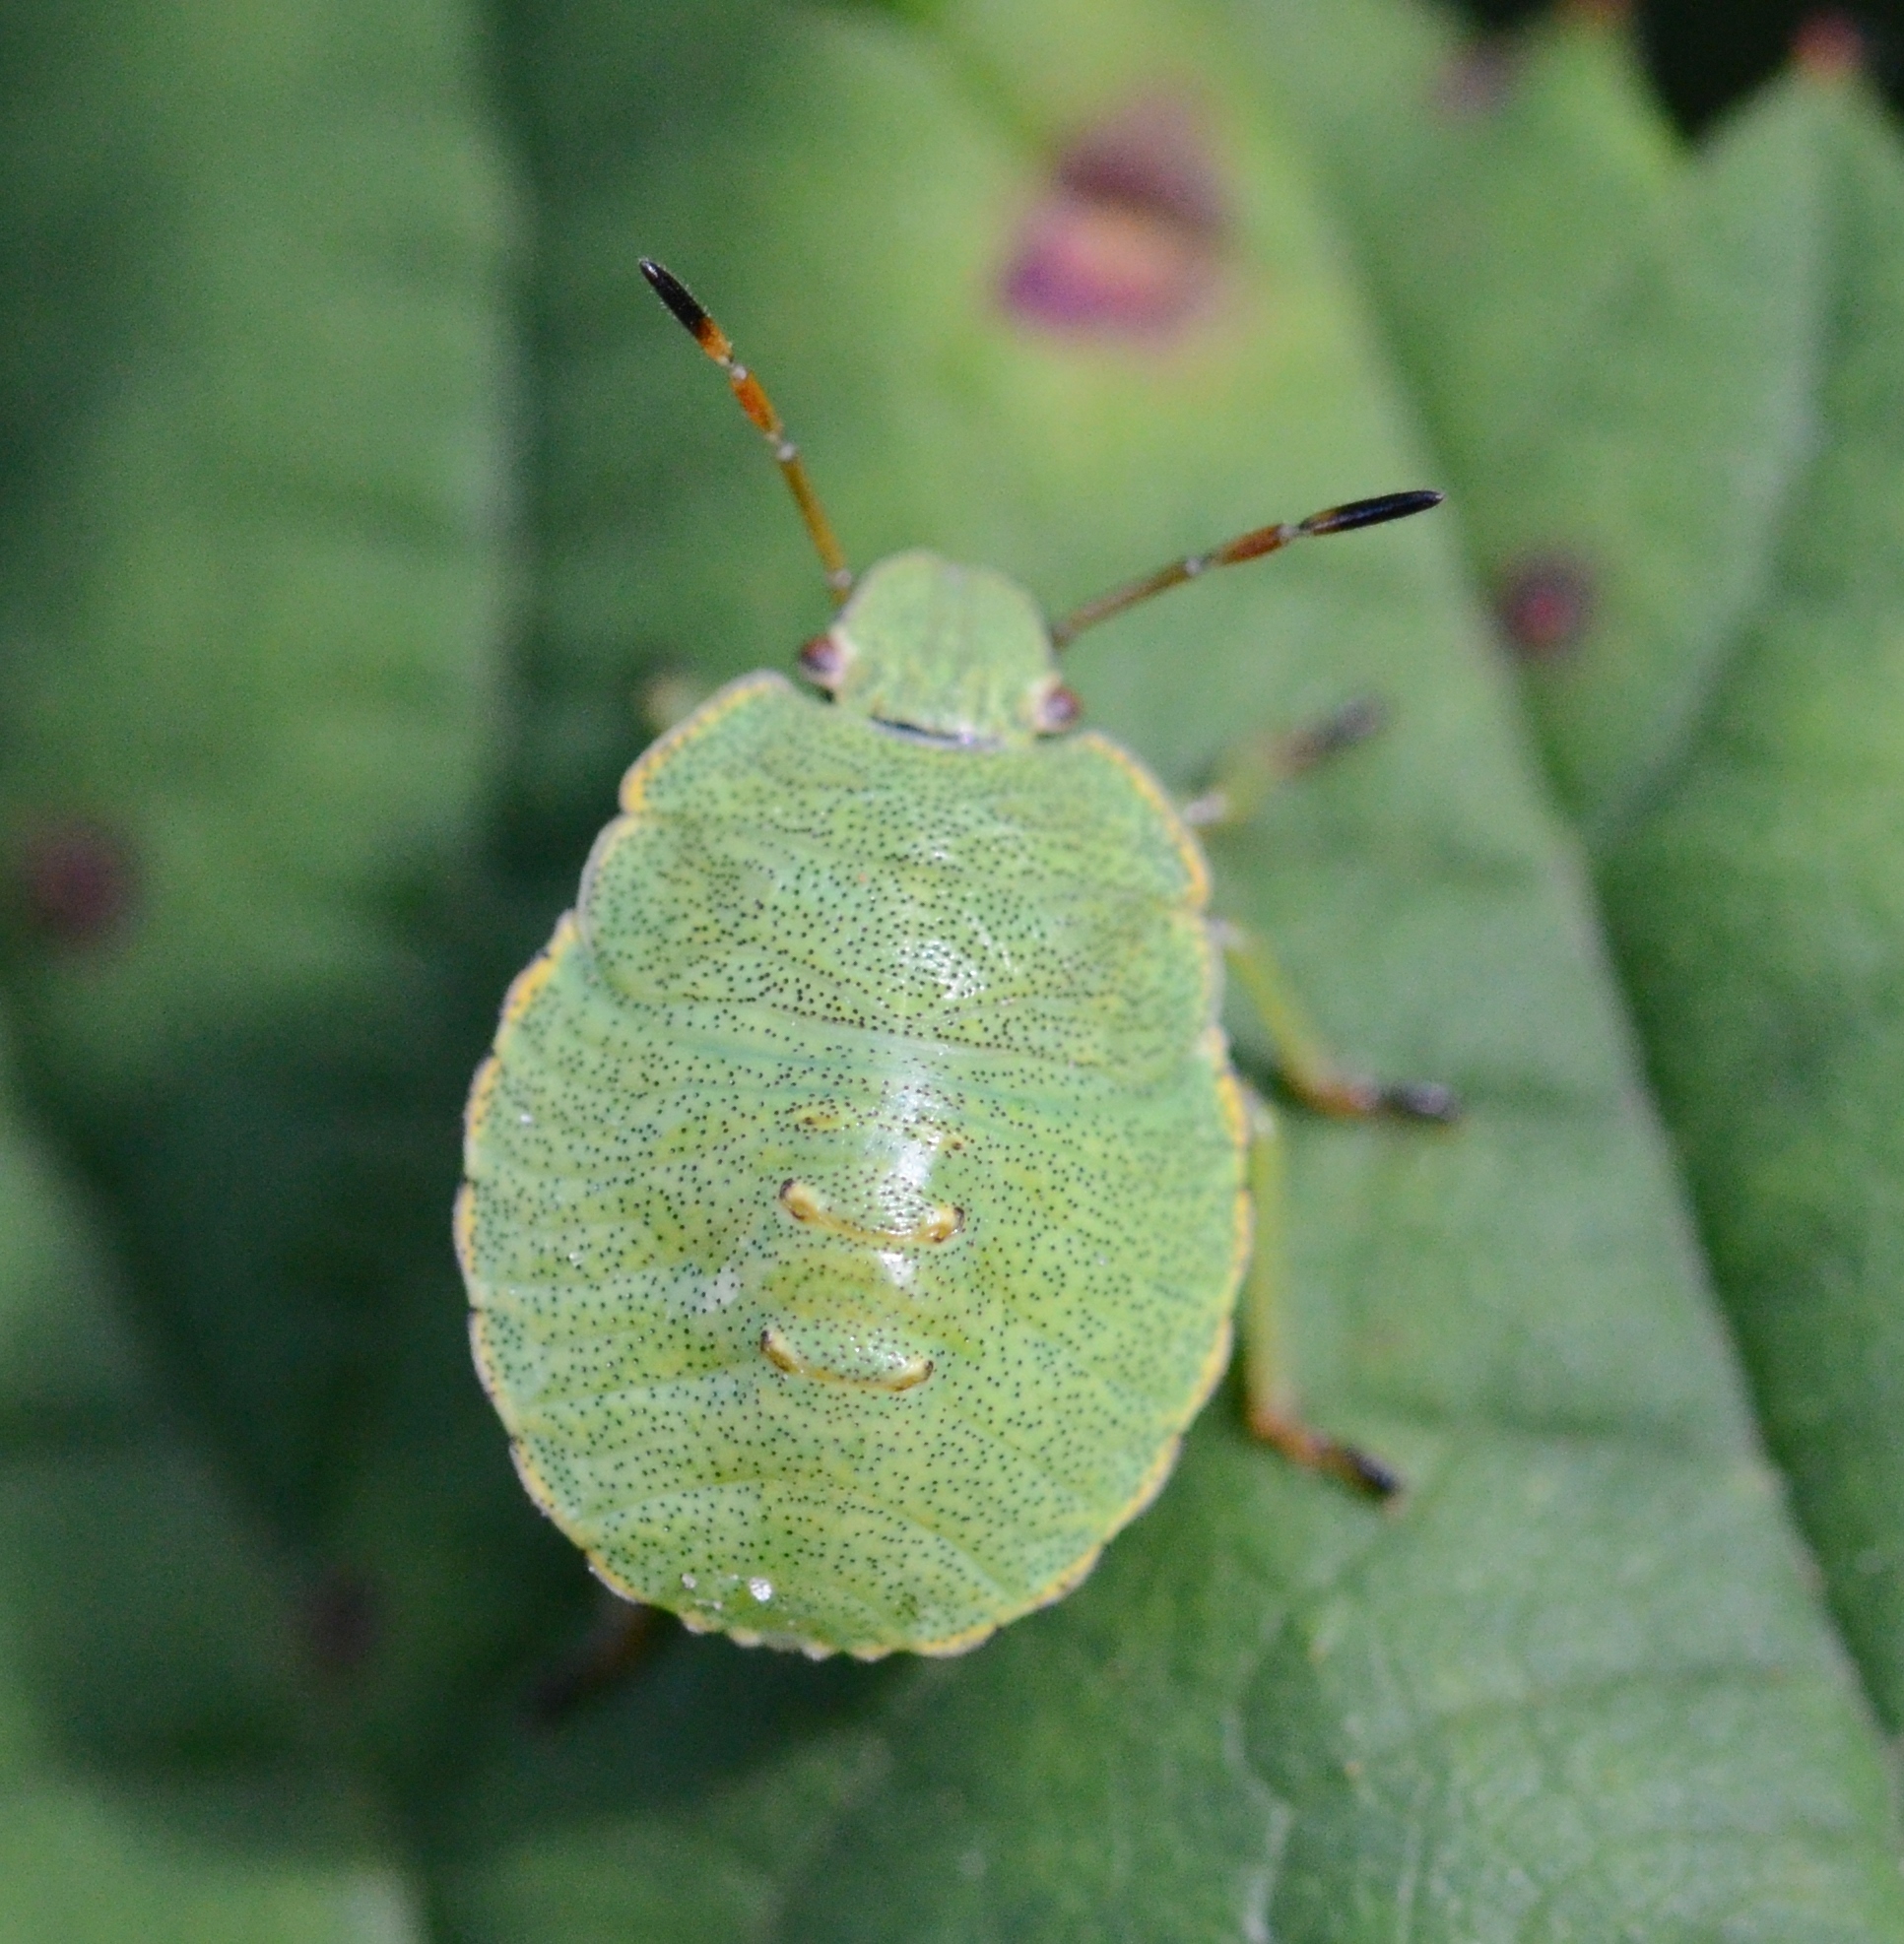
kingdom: Animalia
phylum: Arthropoda
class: Insecta
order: Hemiptera
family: Pentatomidae
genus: Palomena
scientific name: Palomena prasina
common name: Green shieldbug
